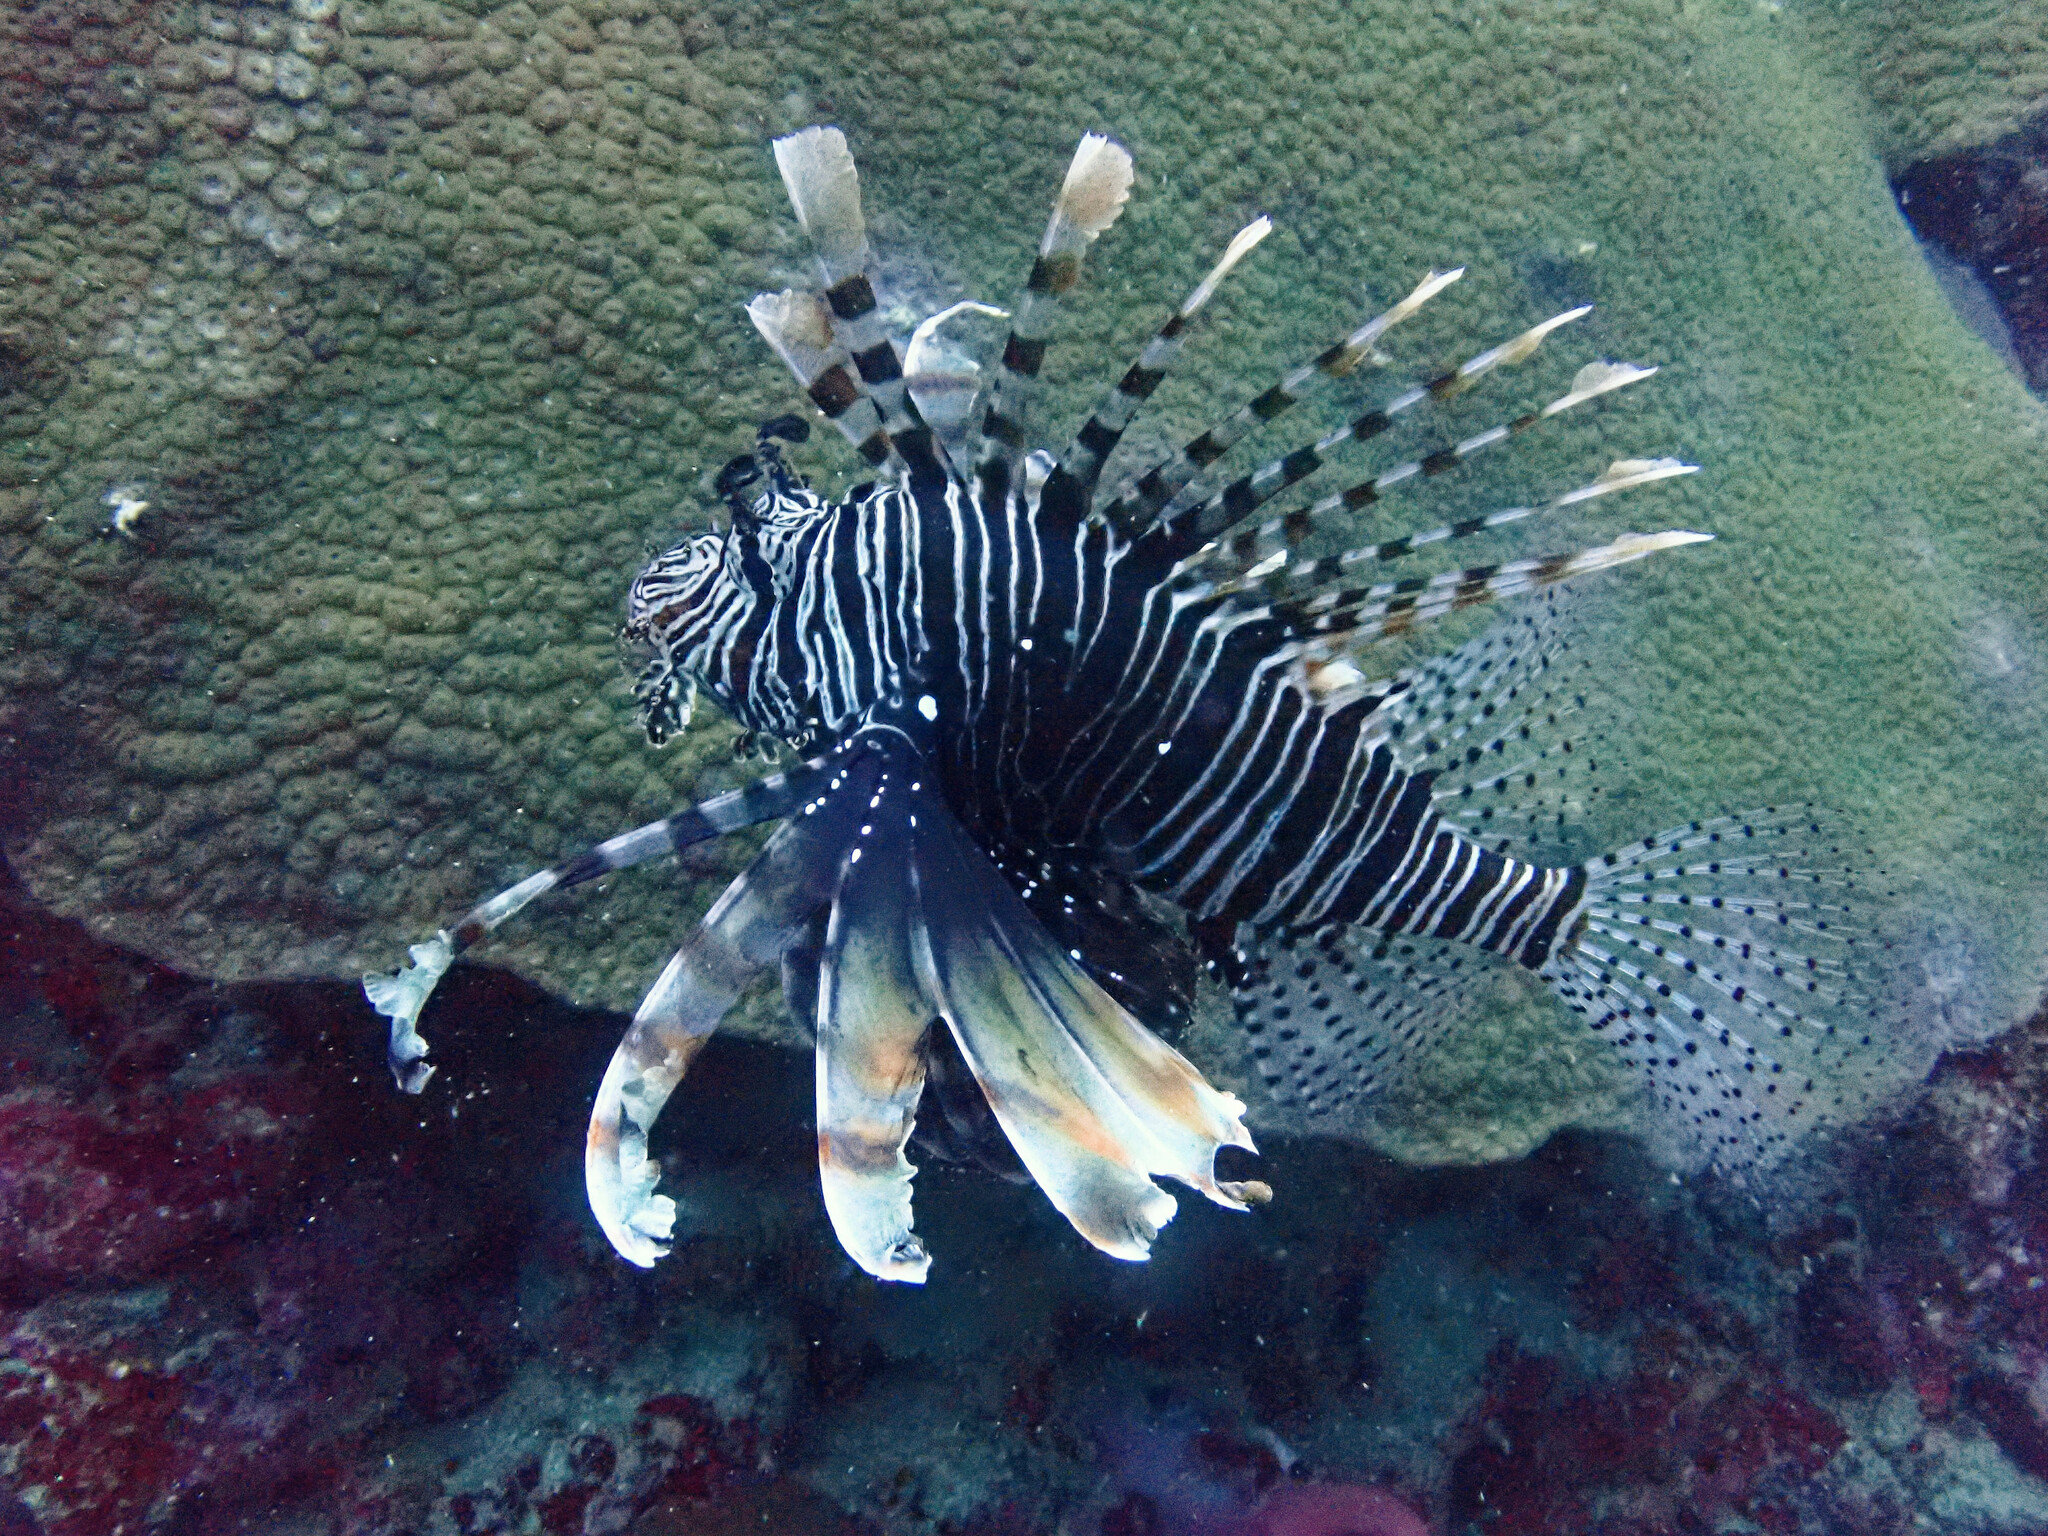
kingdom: Animalia
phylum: Chordata
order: Scorpaeniformes
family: Scorpaenidae
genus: Pterois
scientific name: Pterois miles
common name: Devil firefish
